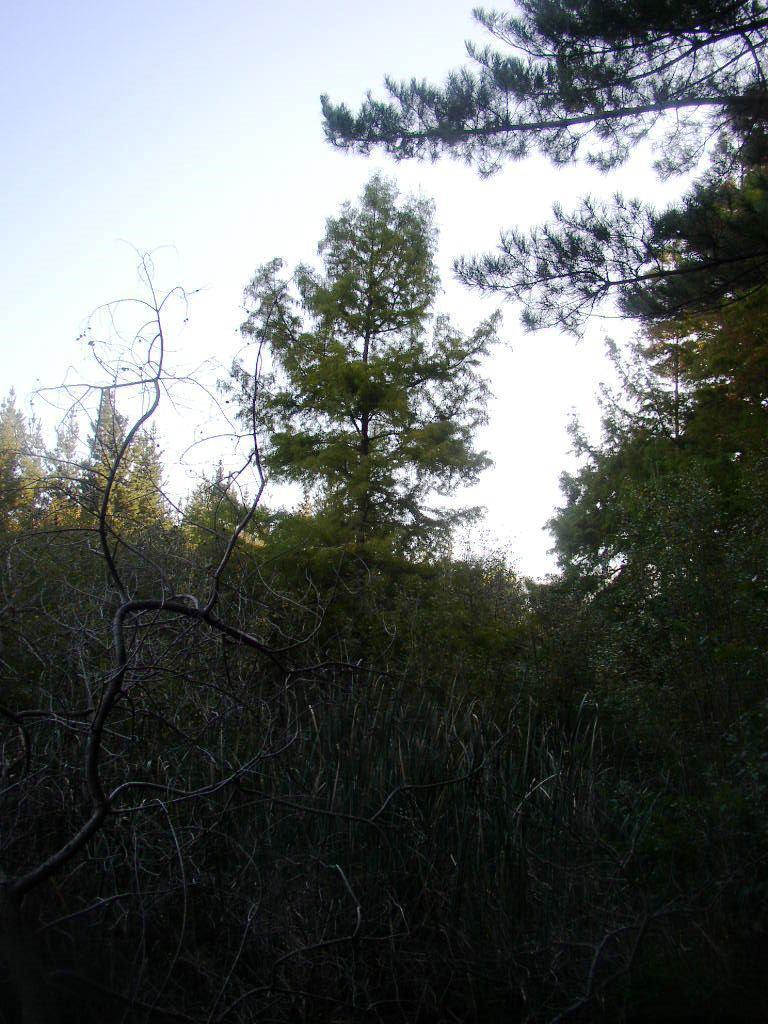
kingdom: Plantae
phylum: Tracheophyta
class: Pinopsida
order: Pinales
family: Cupressaceae
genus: Taxodium
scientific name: Taxodium distichum
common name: Bald cypress
